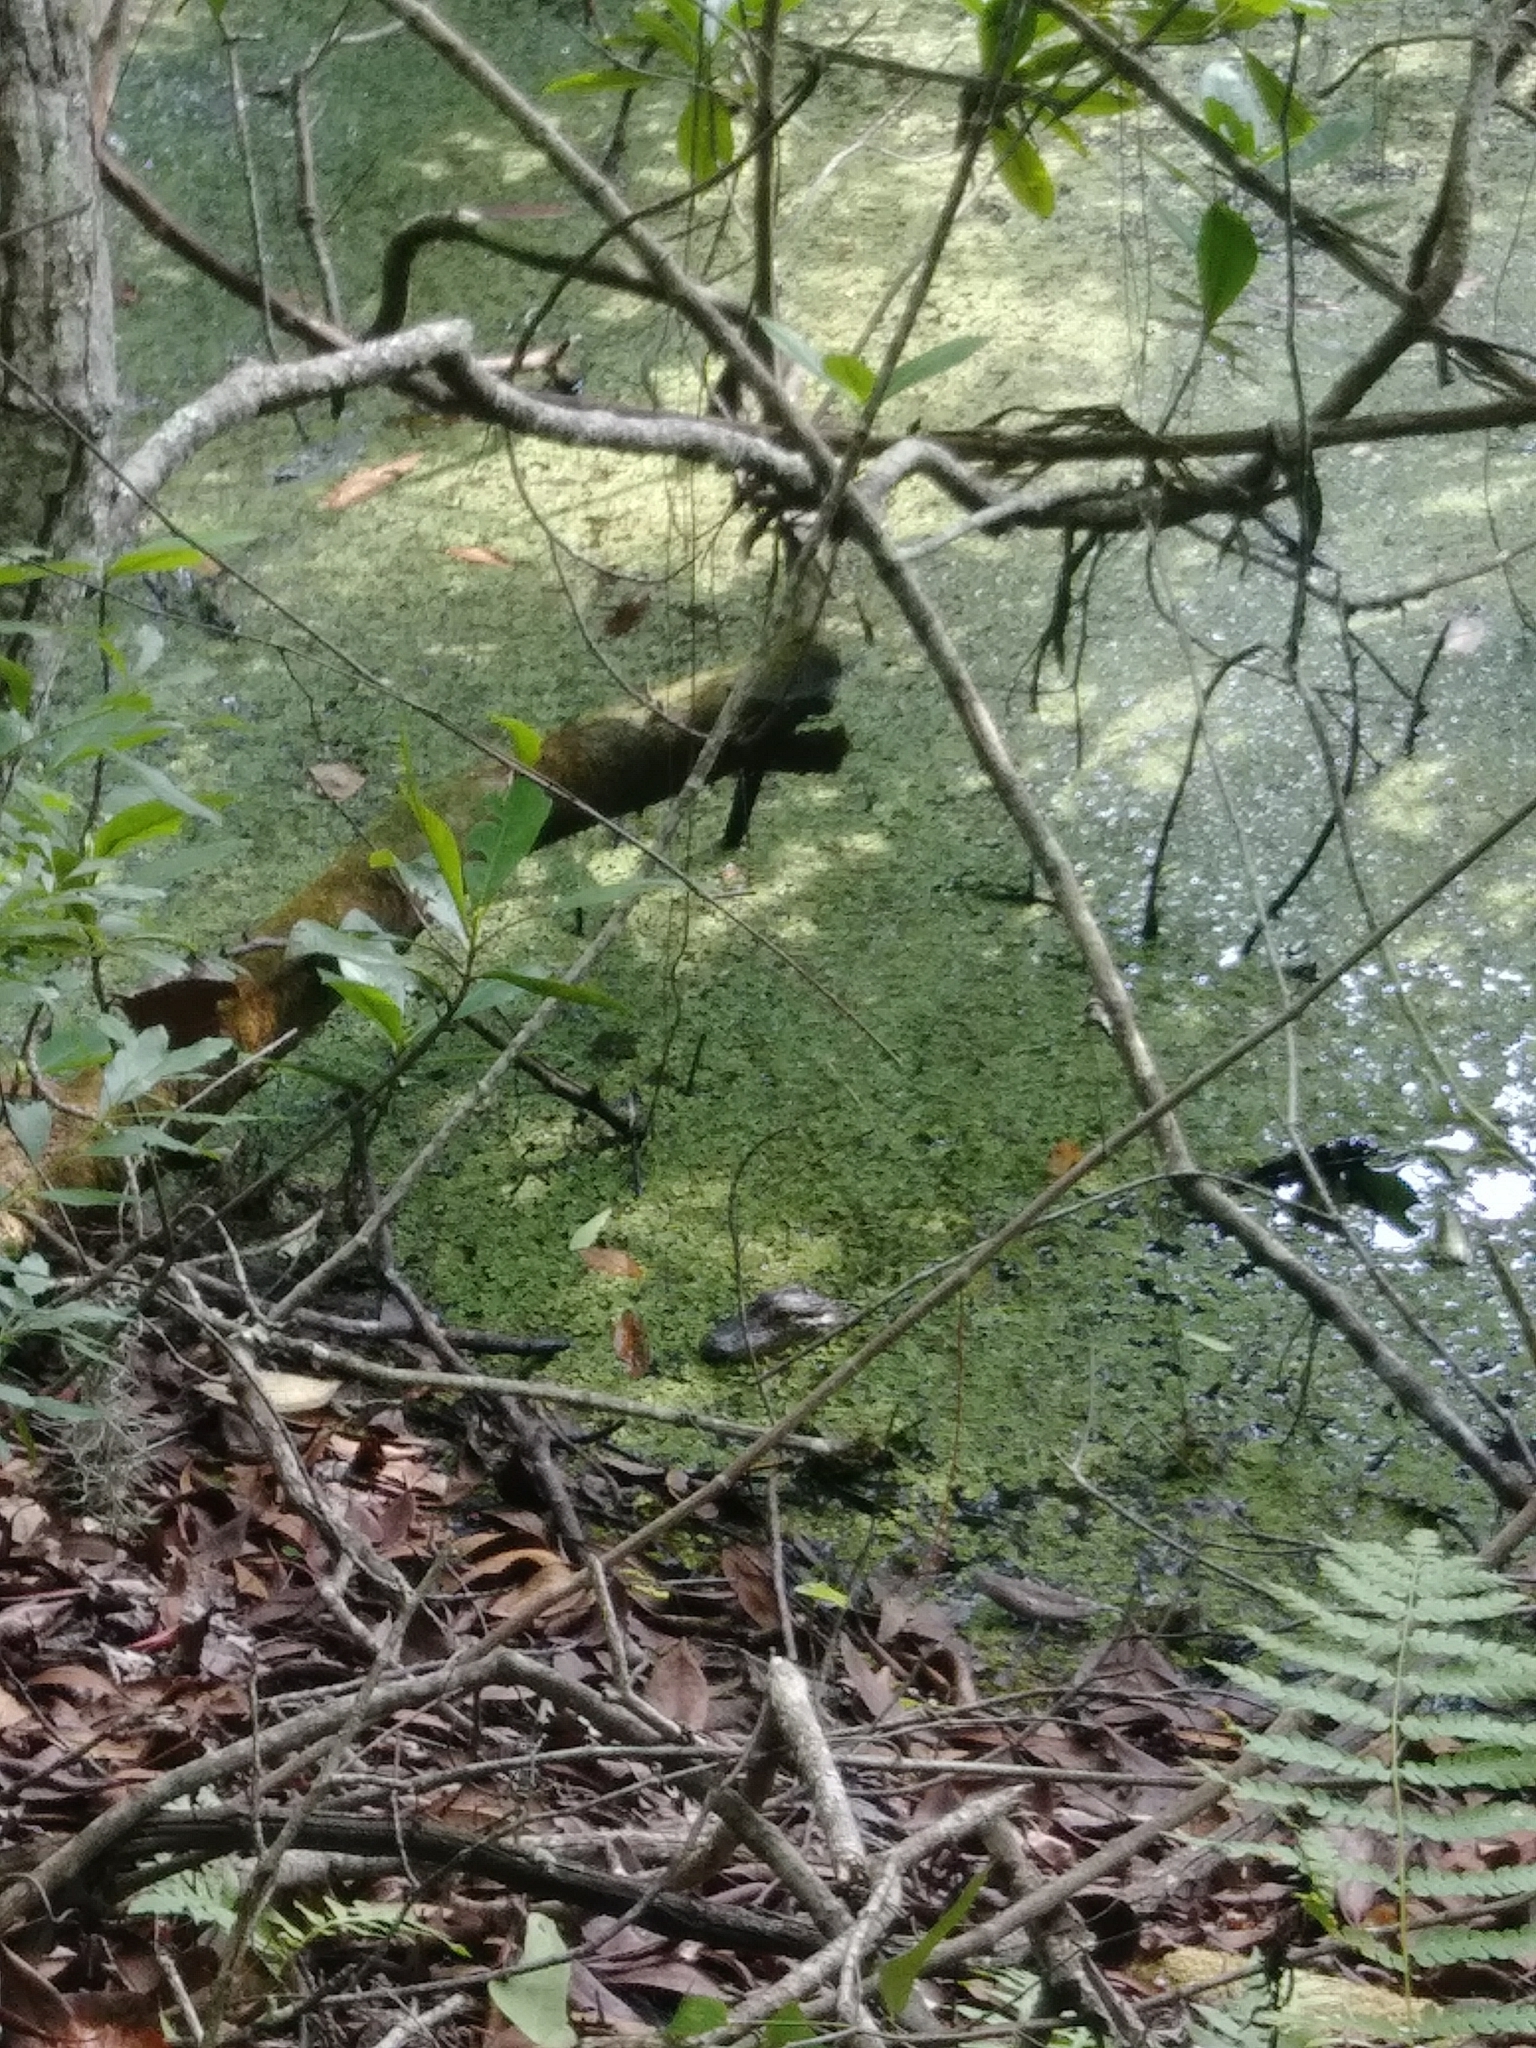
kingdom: Animalia
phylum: Chordata
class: Crocodylia
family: Alligatoridae
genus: Alligator
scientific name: Alligator mississippiensis
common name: American alligator
